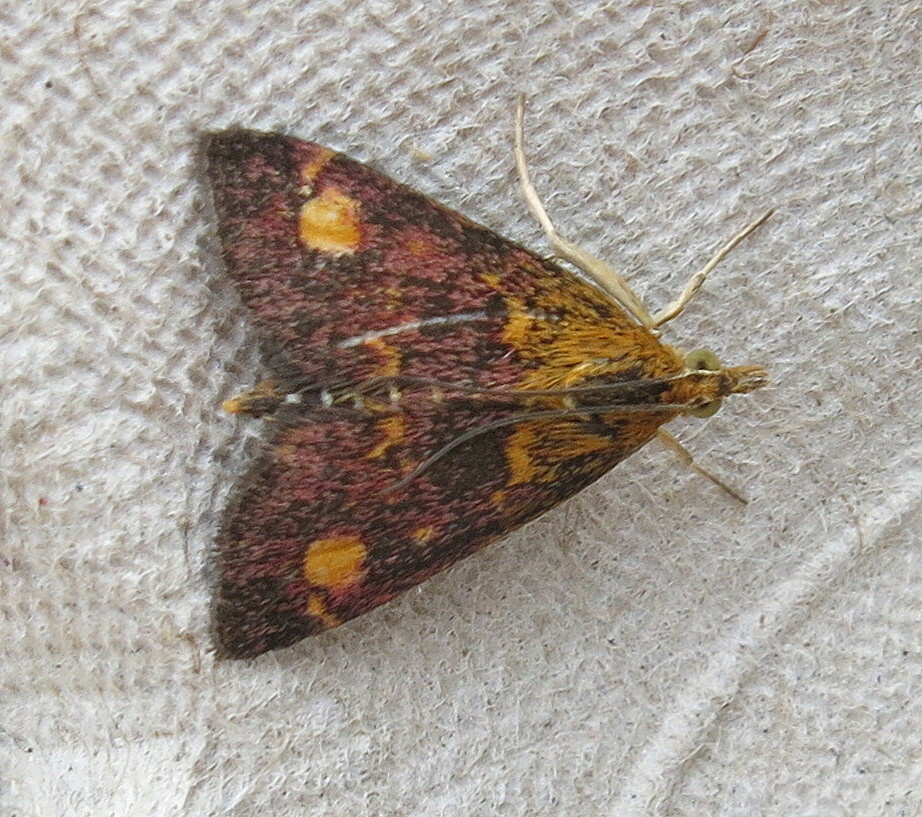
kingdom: Animalia
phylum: Arthropoda
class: Insecta
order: Lepidoptera
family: Crambidae
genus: Pyrausta
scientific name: Pyrausta aurata
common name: Small purple & gold
